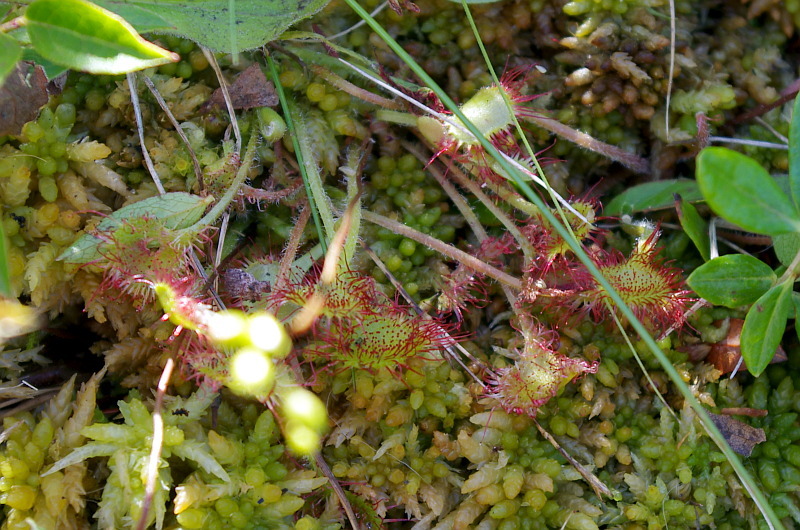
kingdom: Plantae
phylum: Tracheophyta
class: Magnoliopsida
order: Caryophyllales
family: Droseraceae
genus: Drosera
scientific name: Drosera rotundifolia
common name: Round-leaved sundew
